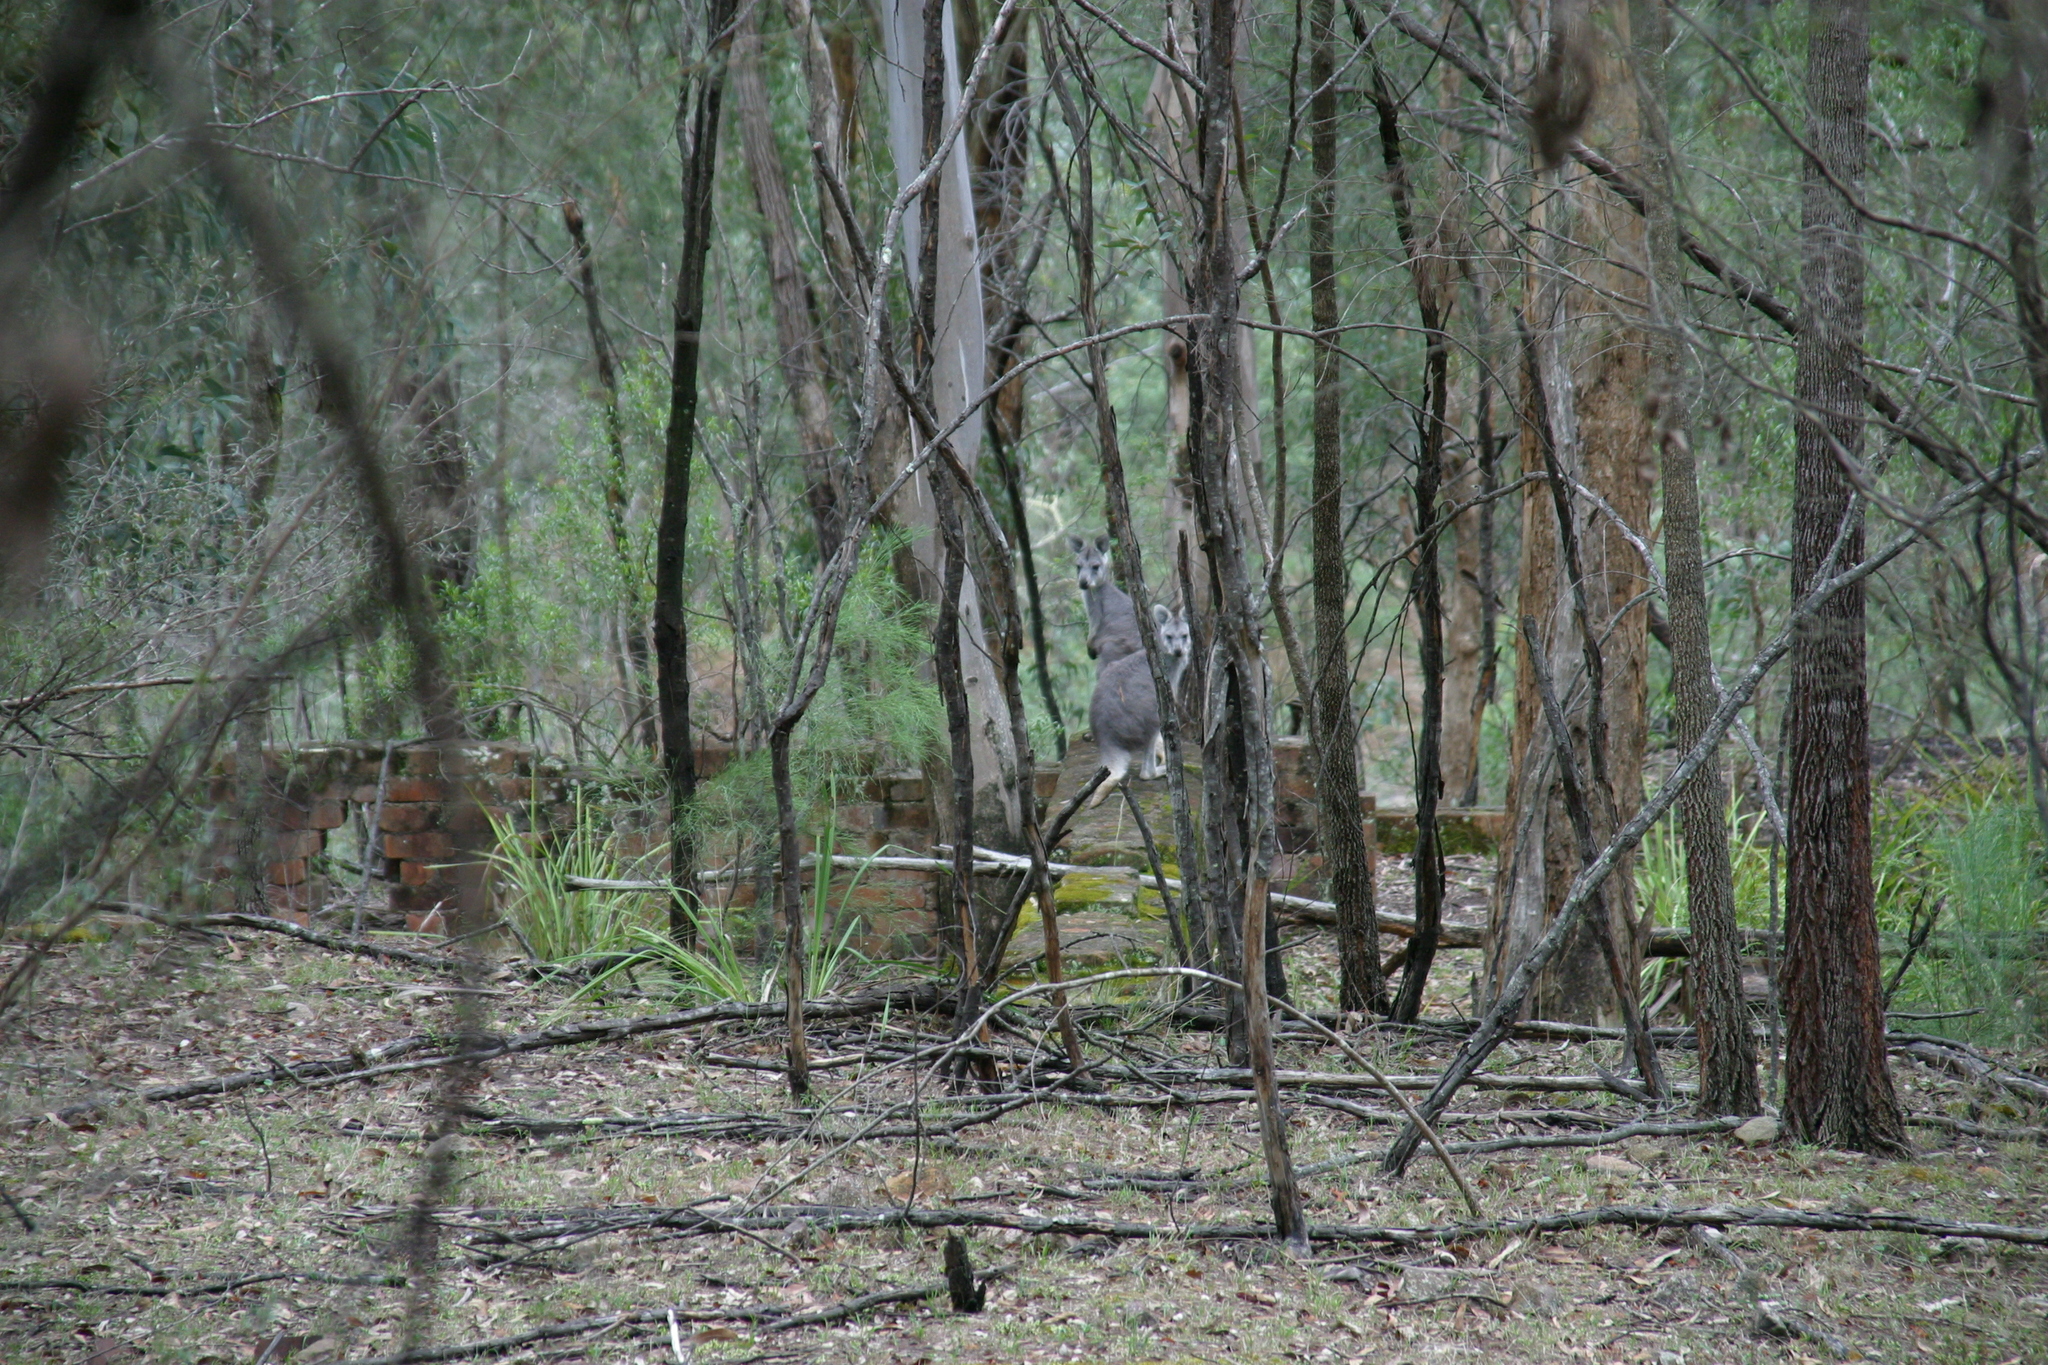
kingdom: Animalia
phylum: Chordata
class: Mammalia
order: Diprotodontia
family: Macropodidae
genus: Macropus
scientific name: Macropus robustus
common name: Eastern wallaroo
